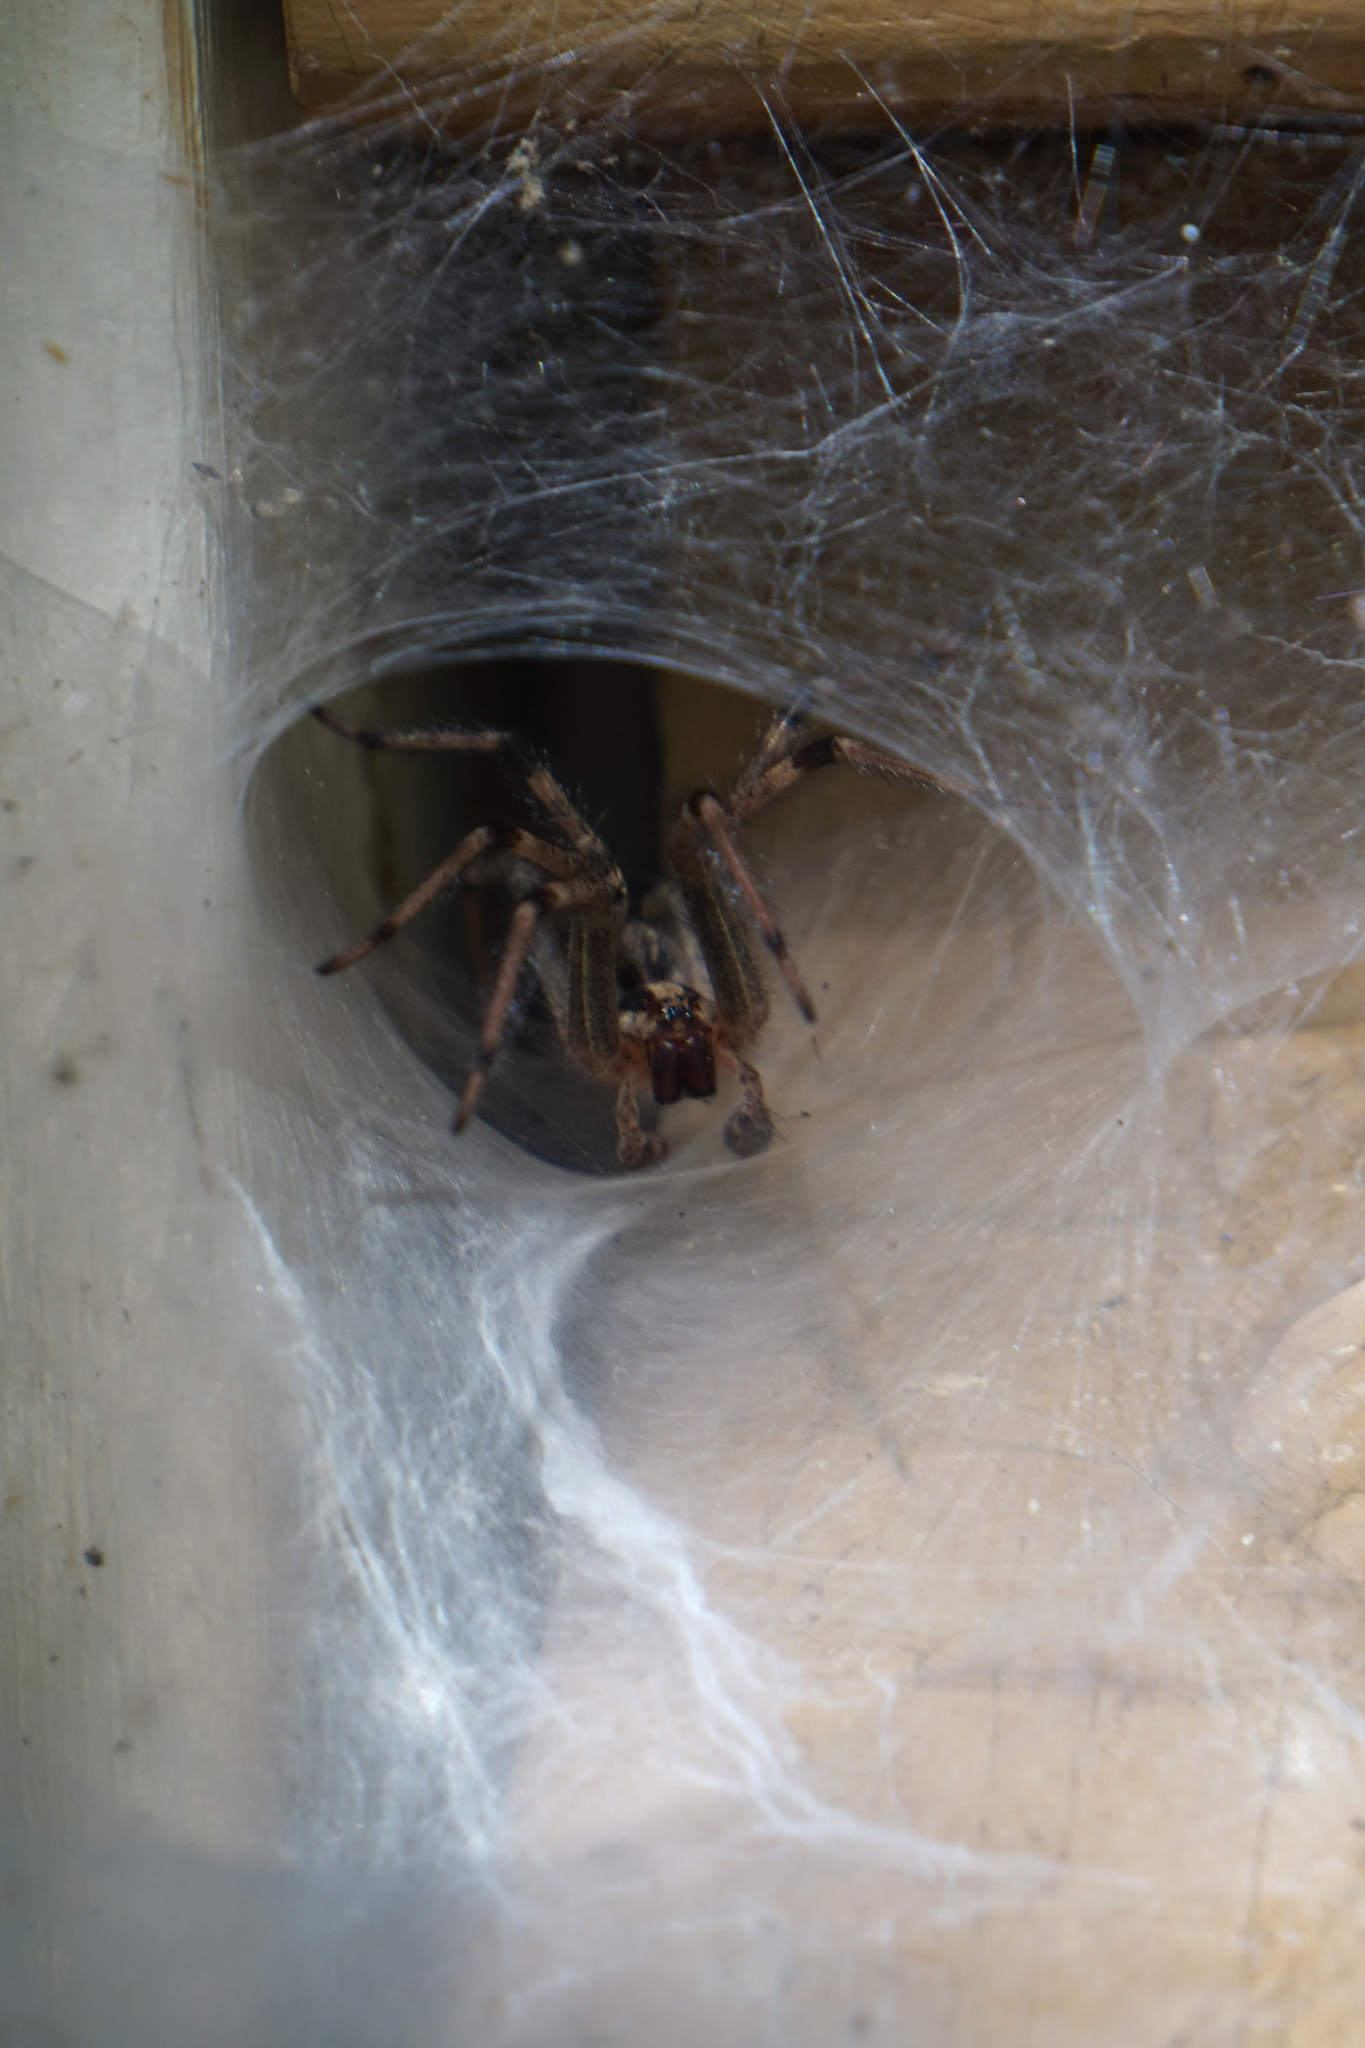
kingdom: Animalia
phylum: Arthropoda
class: Arachnida
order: Araneae
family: Agelenidae
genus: Agelenopsis
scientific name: Agelenopsis
